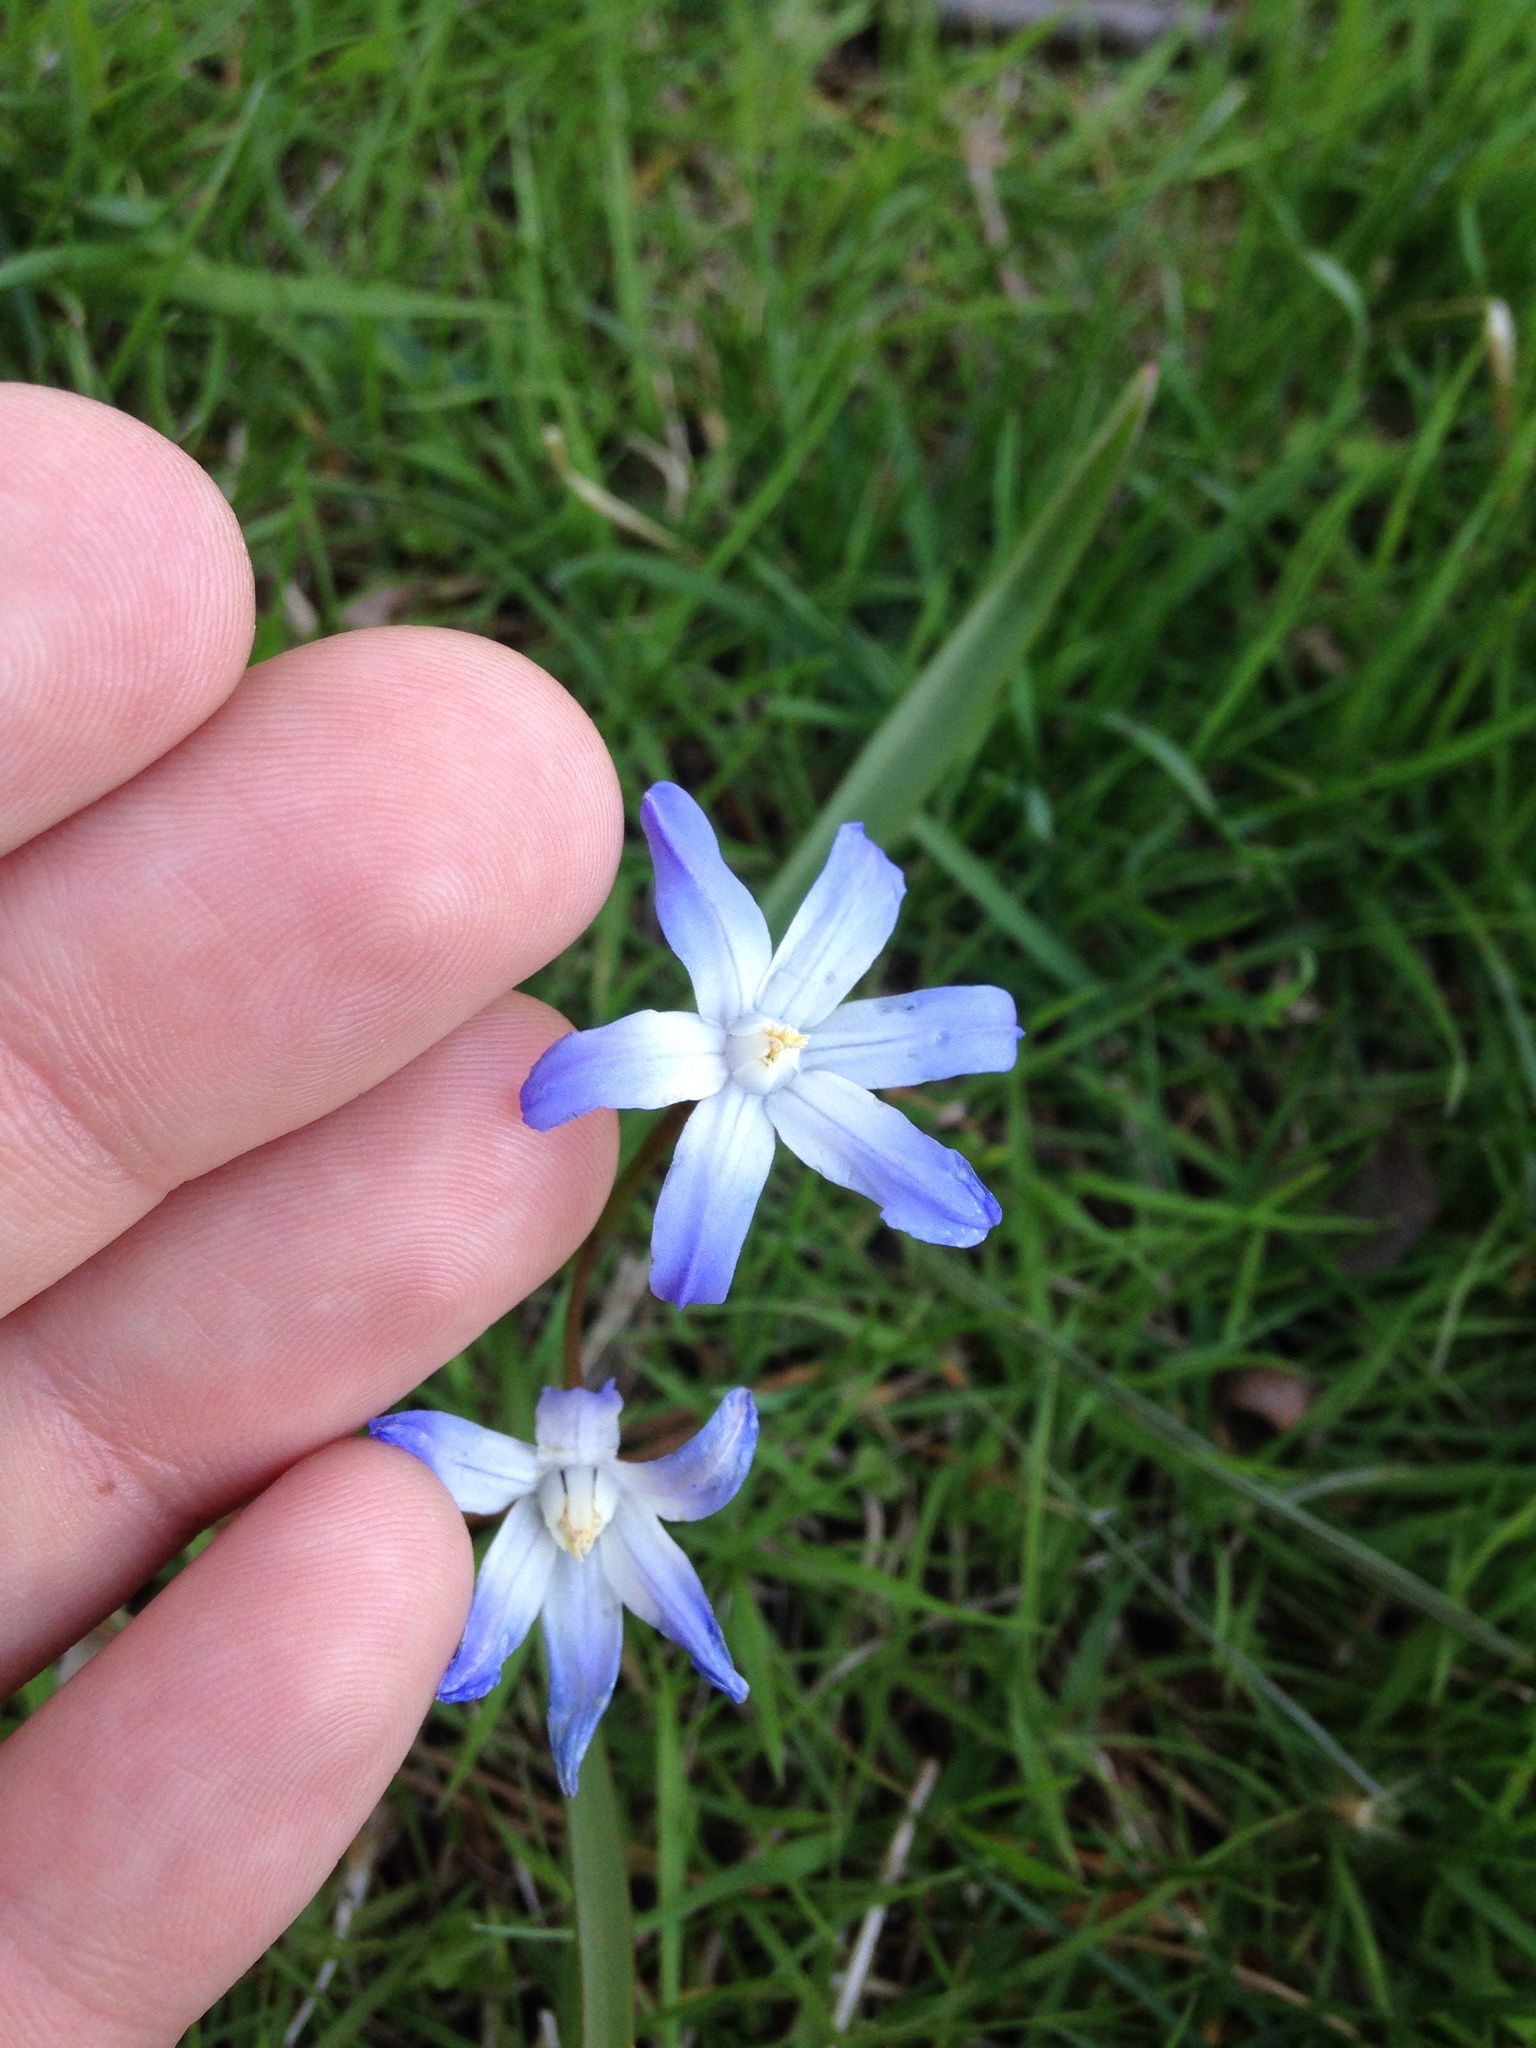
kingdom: Plantae
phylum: Tracheophyta
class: Liliopsida
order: Asparagales
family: Asparagaceae
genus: Scilla
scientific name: Scilla forbesii
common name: Glory-of-the-snow
